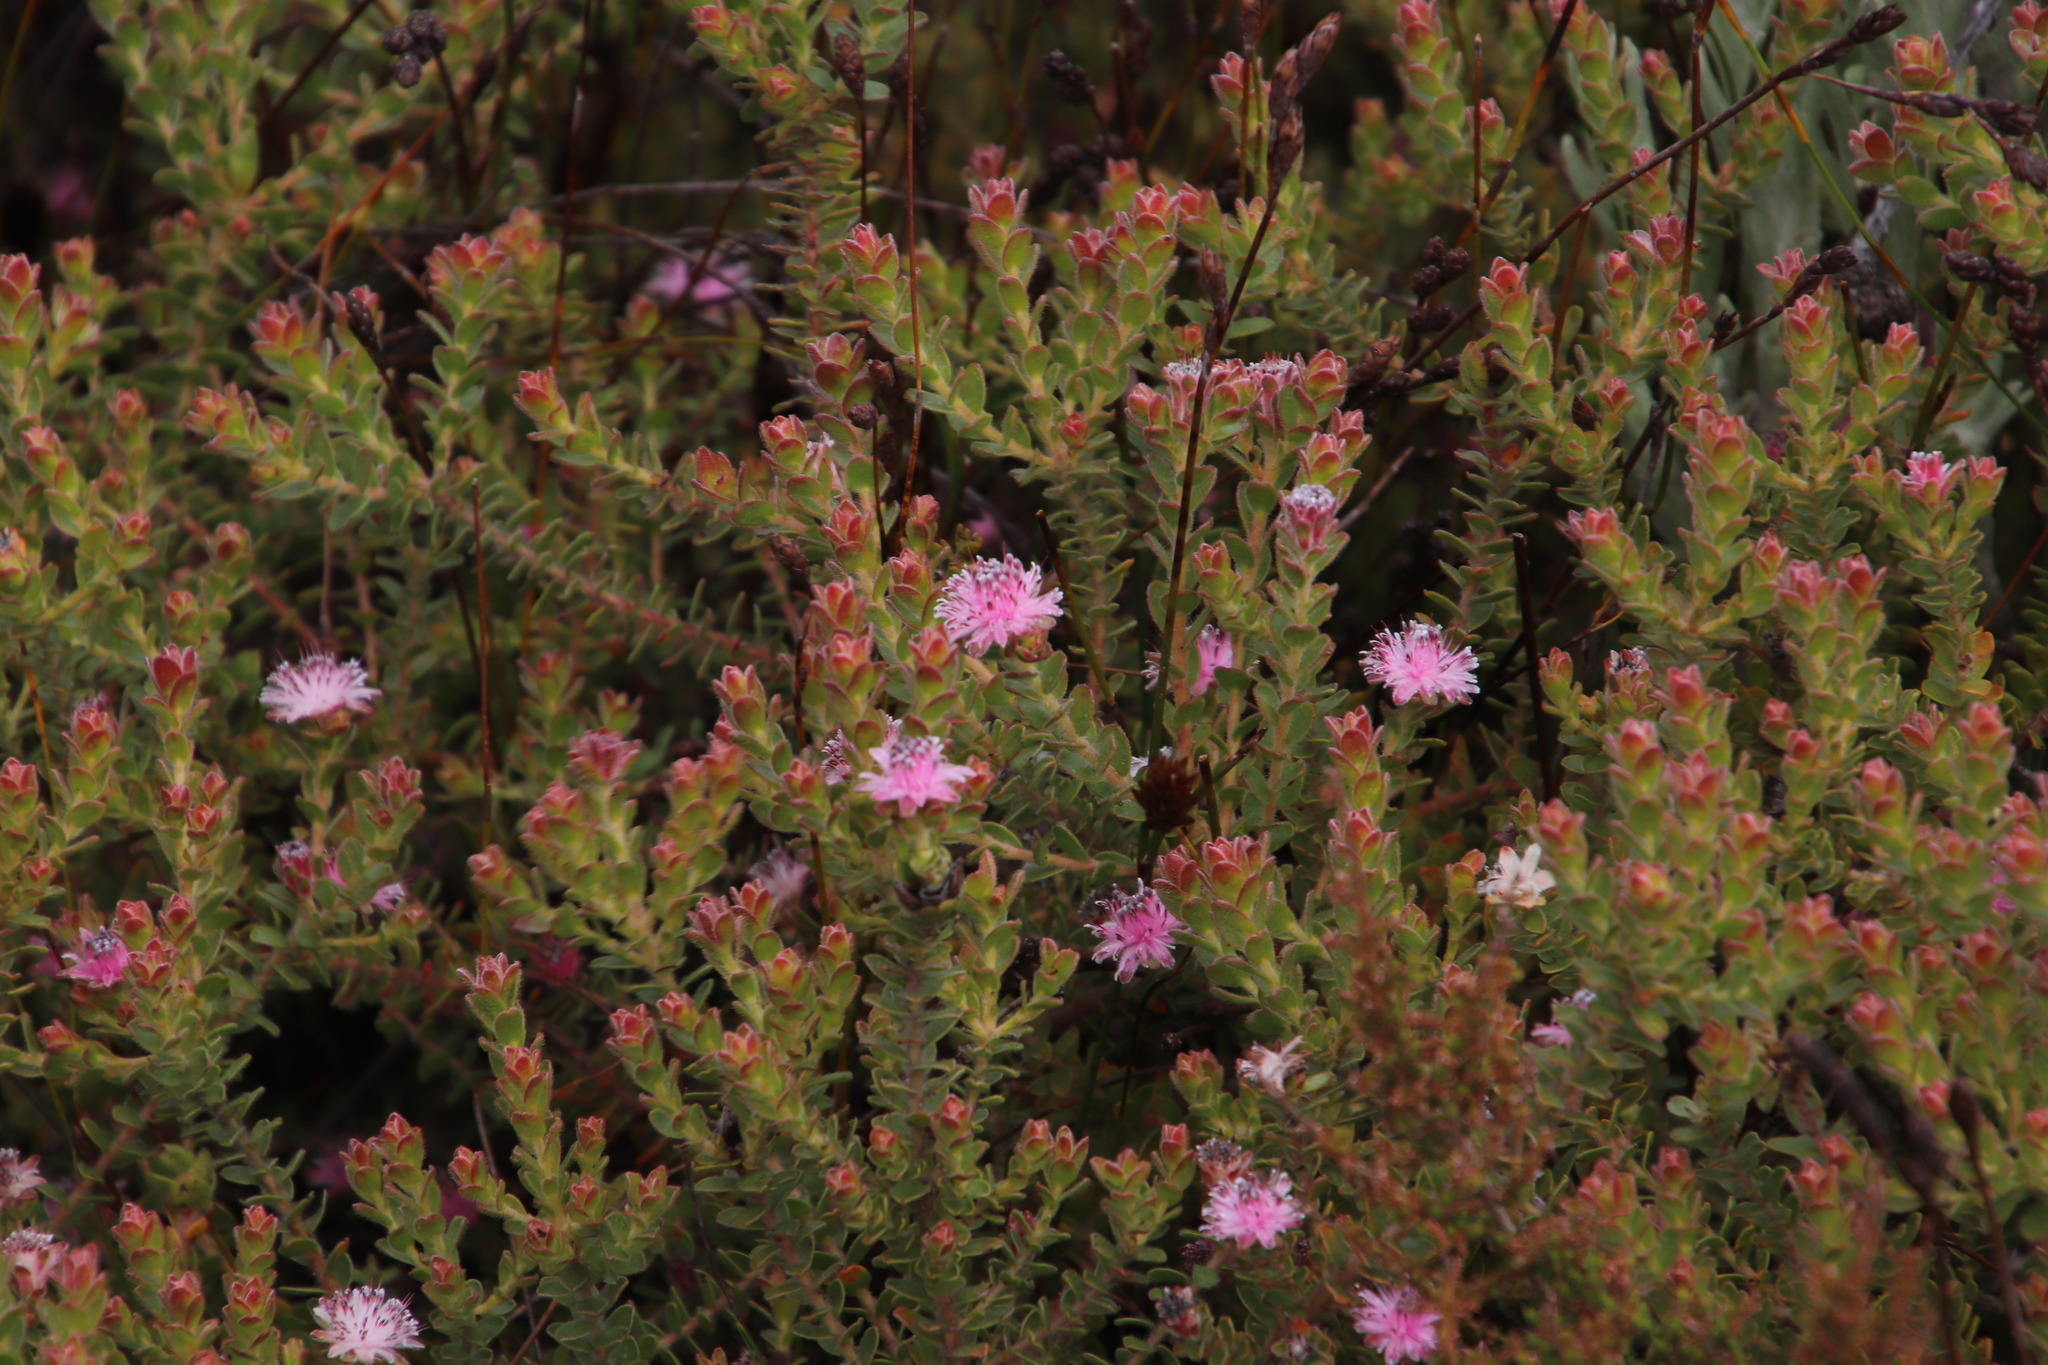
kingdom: Plantae
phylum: Tracheophyta
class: Magnoliopsida
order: Proteales
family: Proteaceae
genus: Diastella
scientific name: Diastella divaricata
